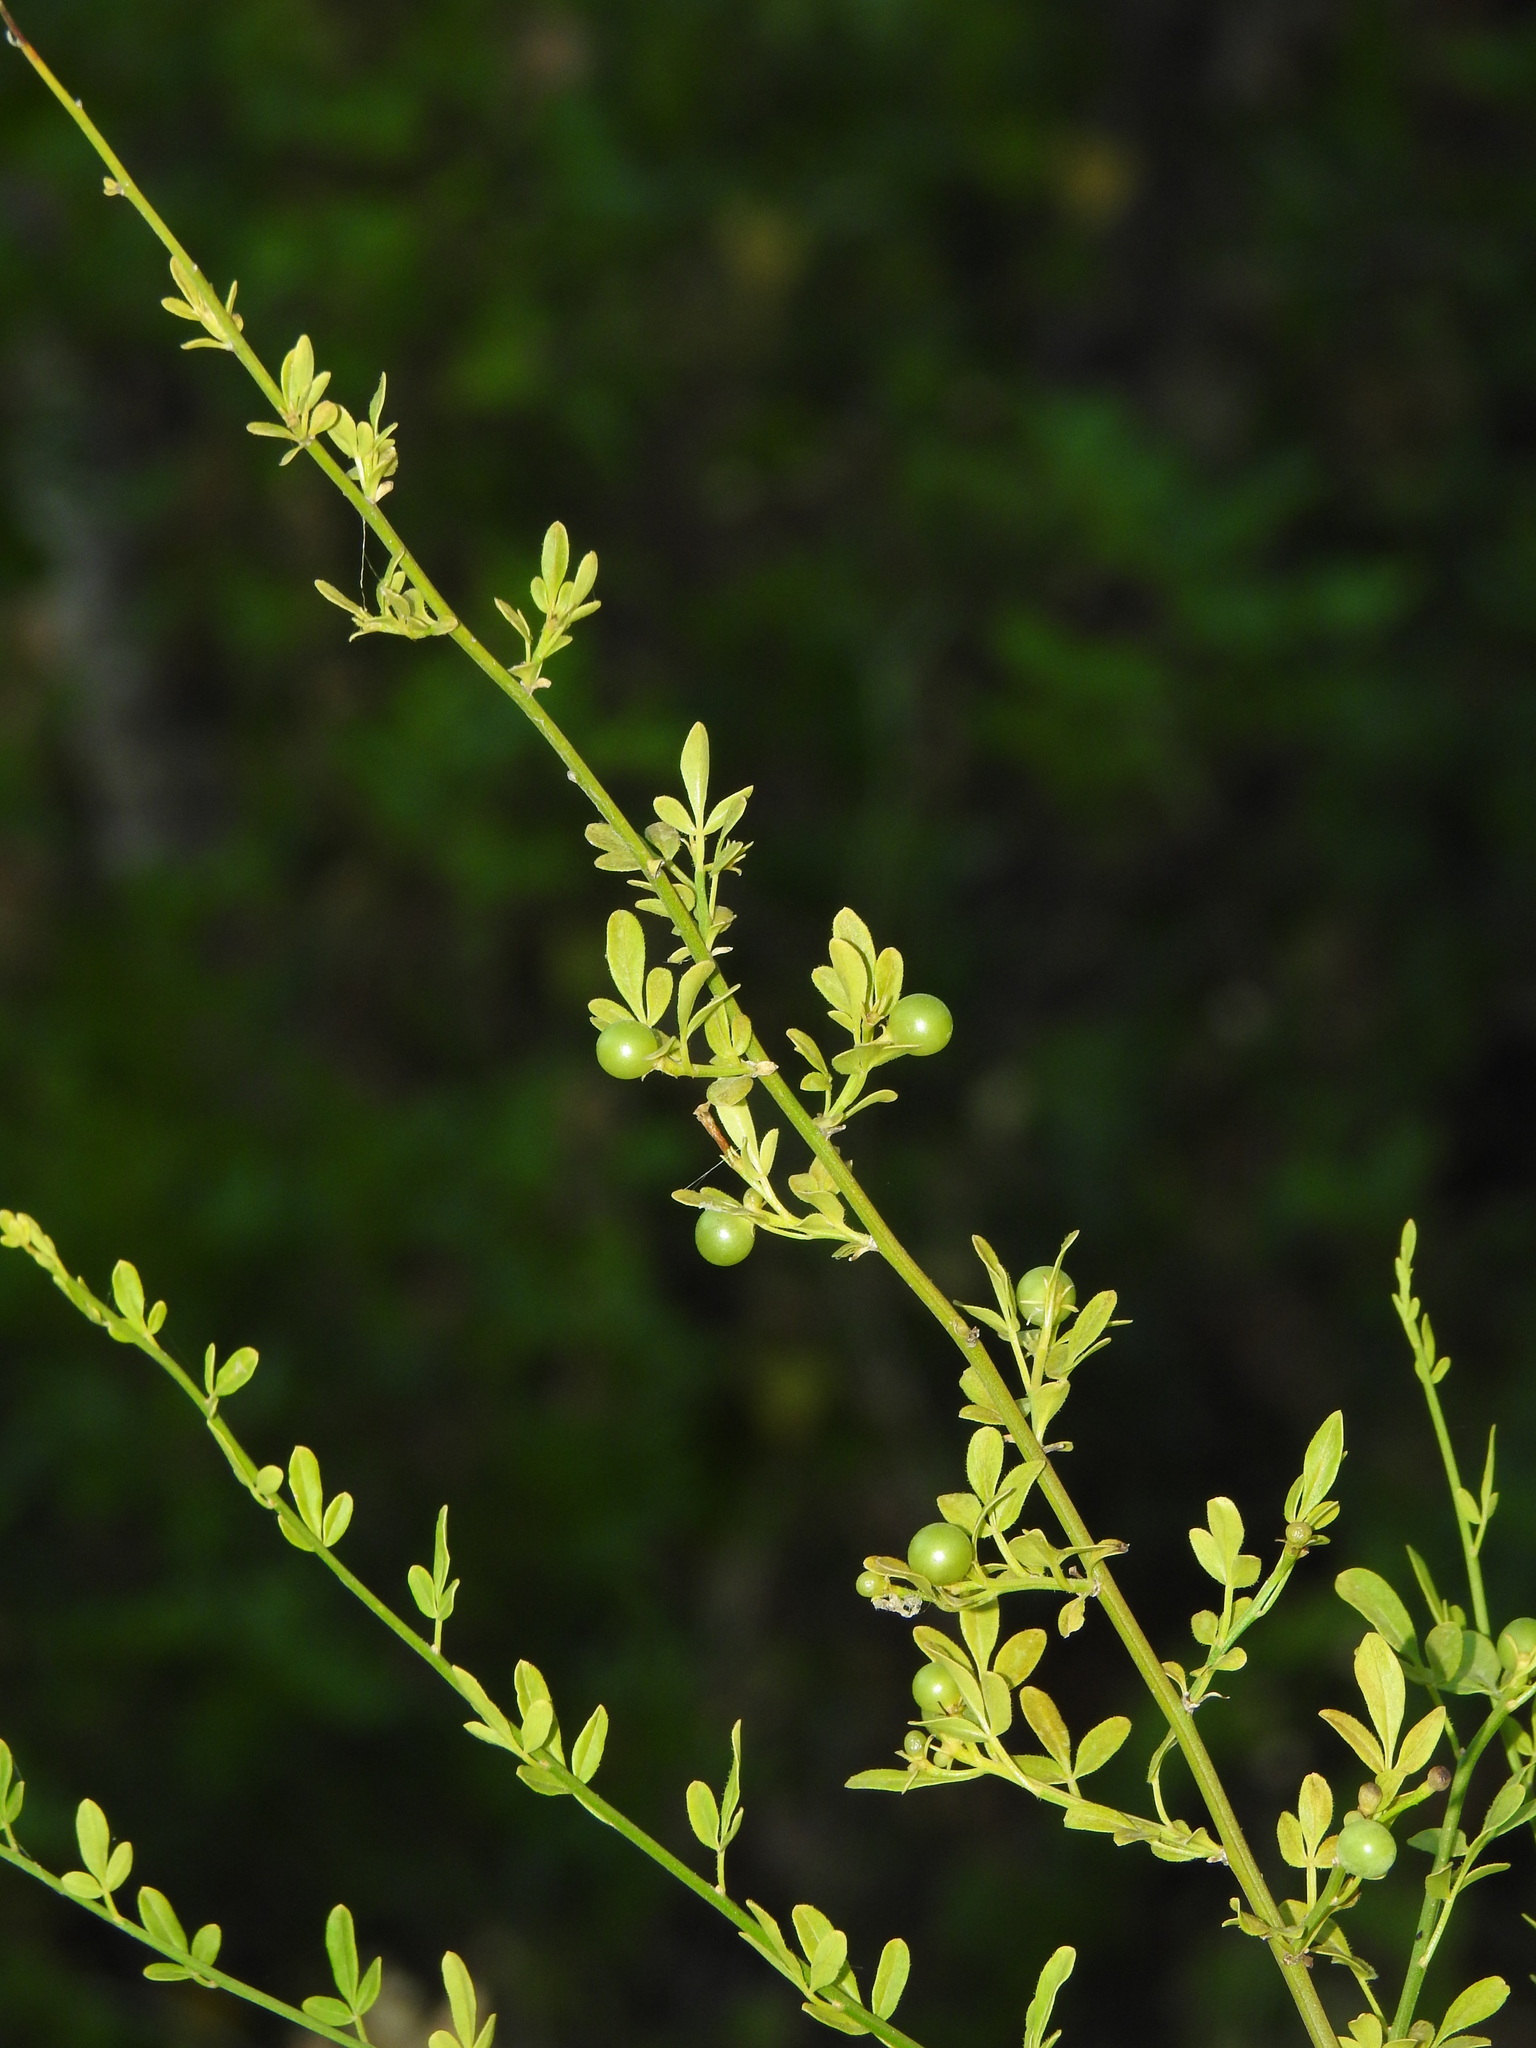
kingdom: Plantae
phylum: Tracheophyta
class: Magnoliopsida
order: Lamiales
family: Oleaceae
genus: Chrysojasminum
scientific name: Chrysojasminum fruticans
